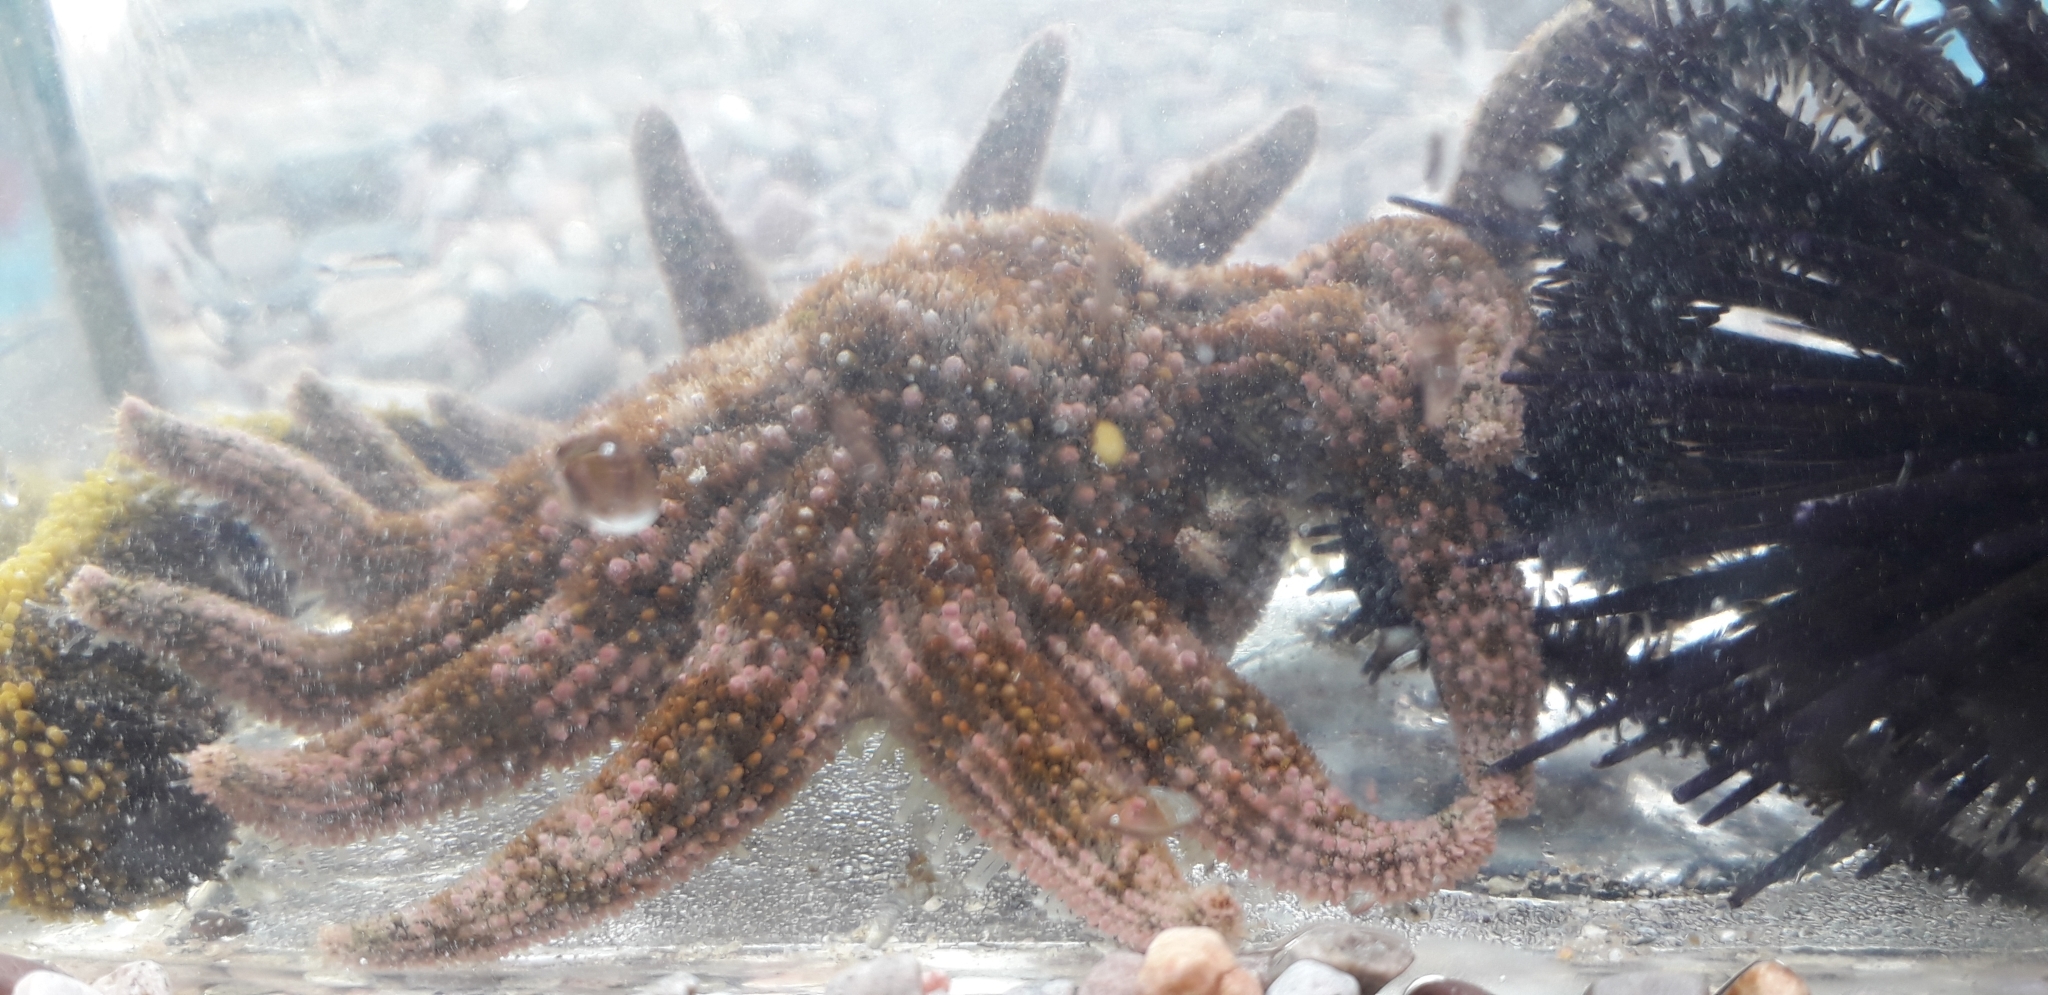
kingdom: Animalia
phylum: Echinodermata
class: Asteroidea
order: Forcipulatida
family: Heliasteridae
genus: Heliaster
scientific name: Heliaster kubiniji
